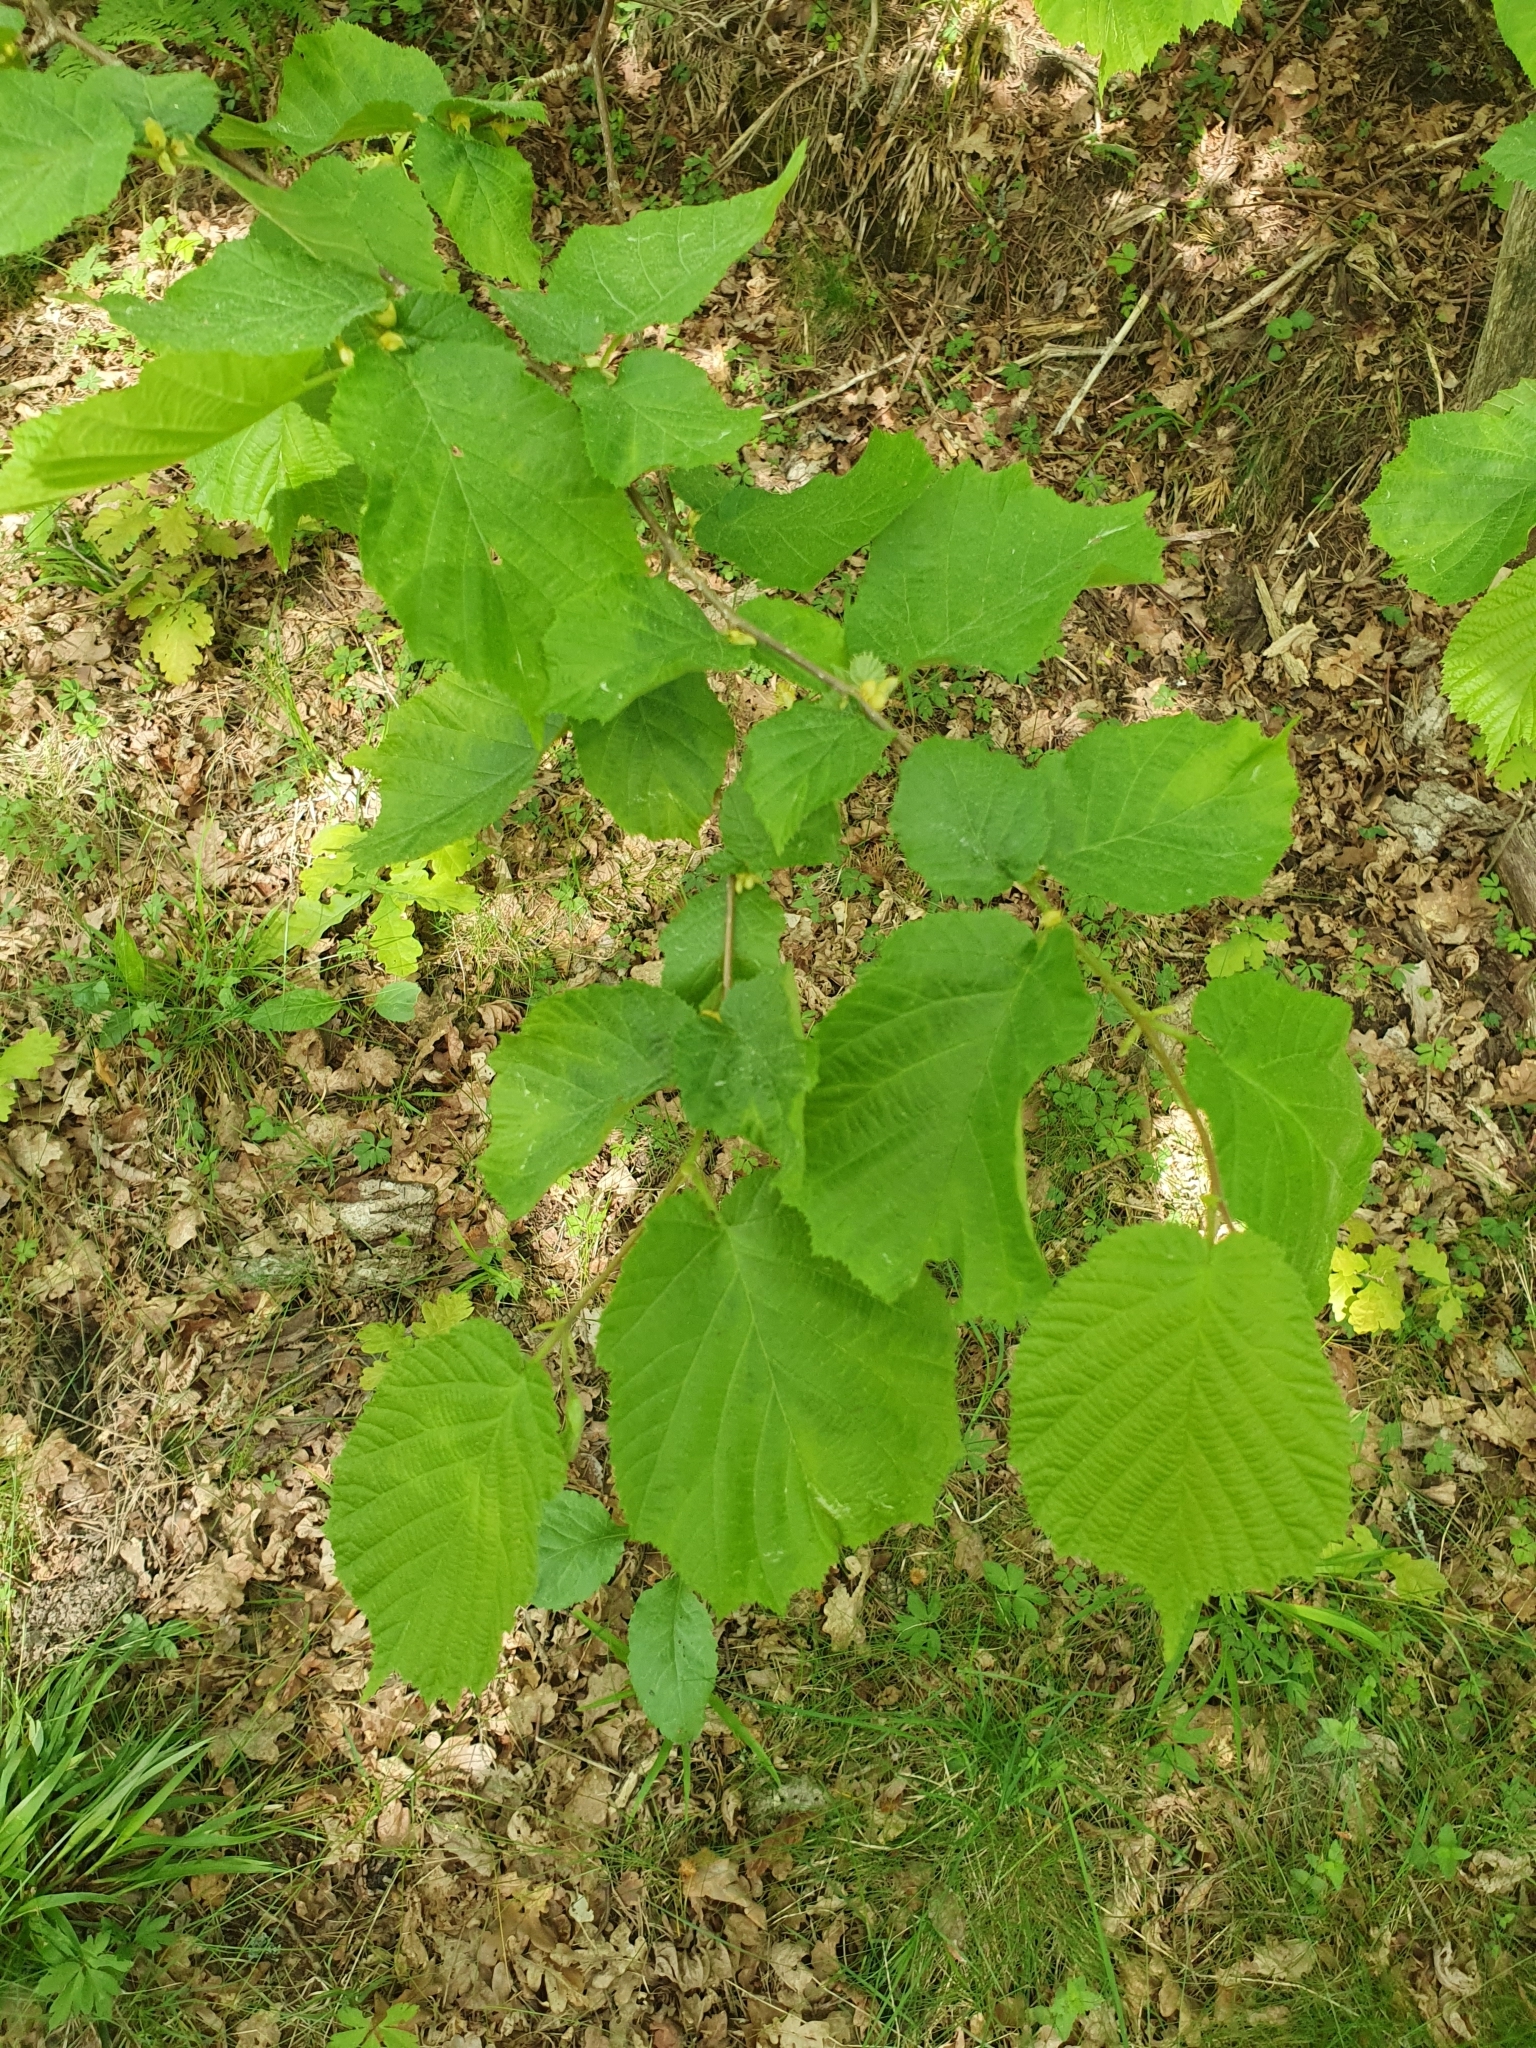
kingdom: Plantae
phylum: Tracheophyta
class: Magnoliopsida
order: Fagales
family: Betulaceae
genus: Corylus
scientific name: Corylus avellana
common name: European hazel
